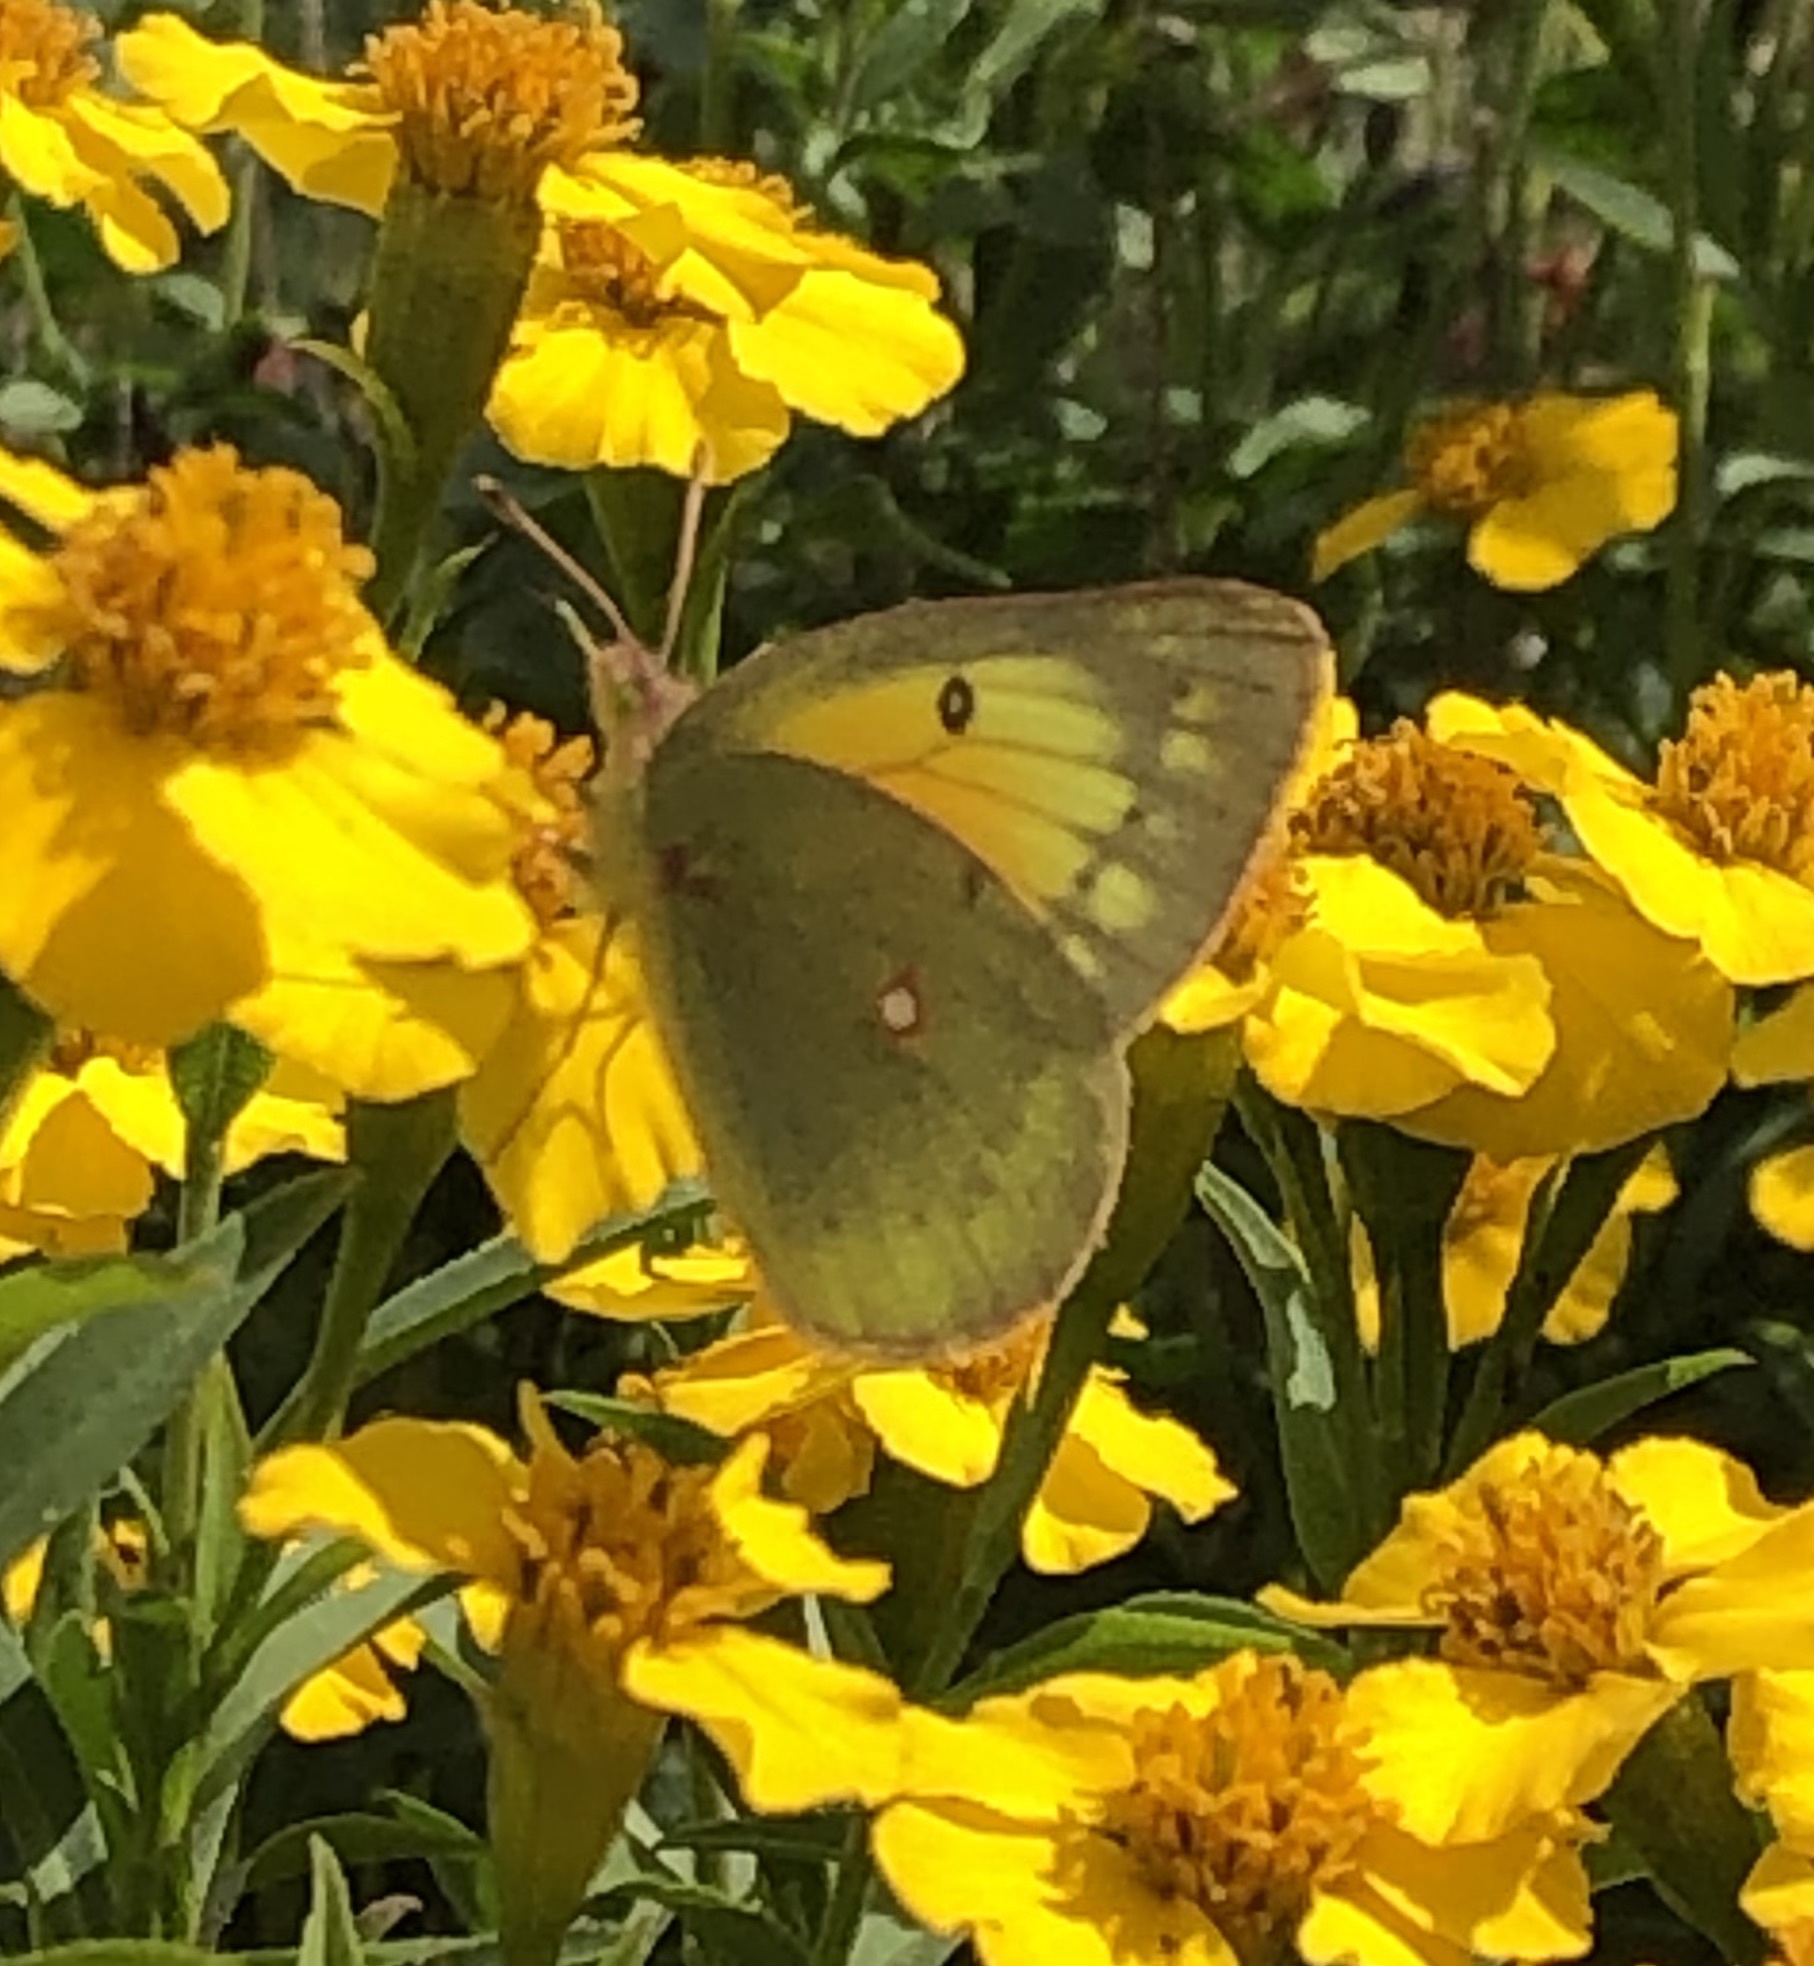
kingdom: Animalia
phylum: Arthropoda
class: Insecta
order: Lepidoptera
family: Pieridae
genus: Colias
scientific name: Colias eurytheme
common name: Alfalfa butterfly
